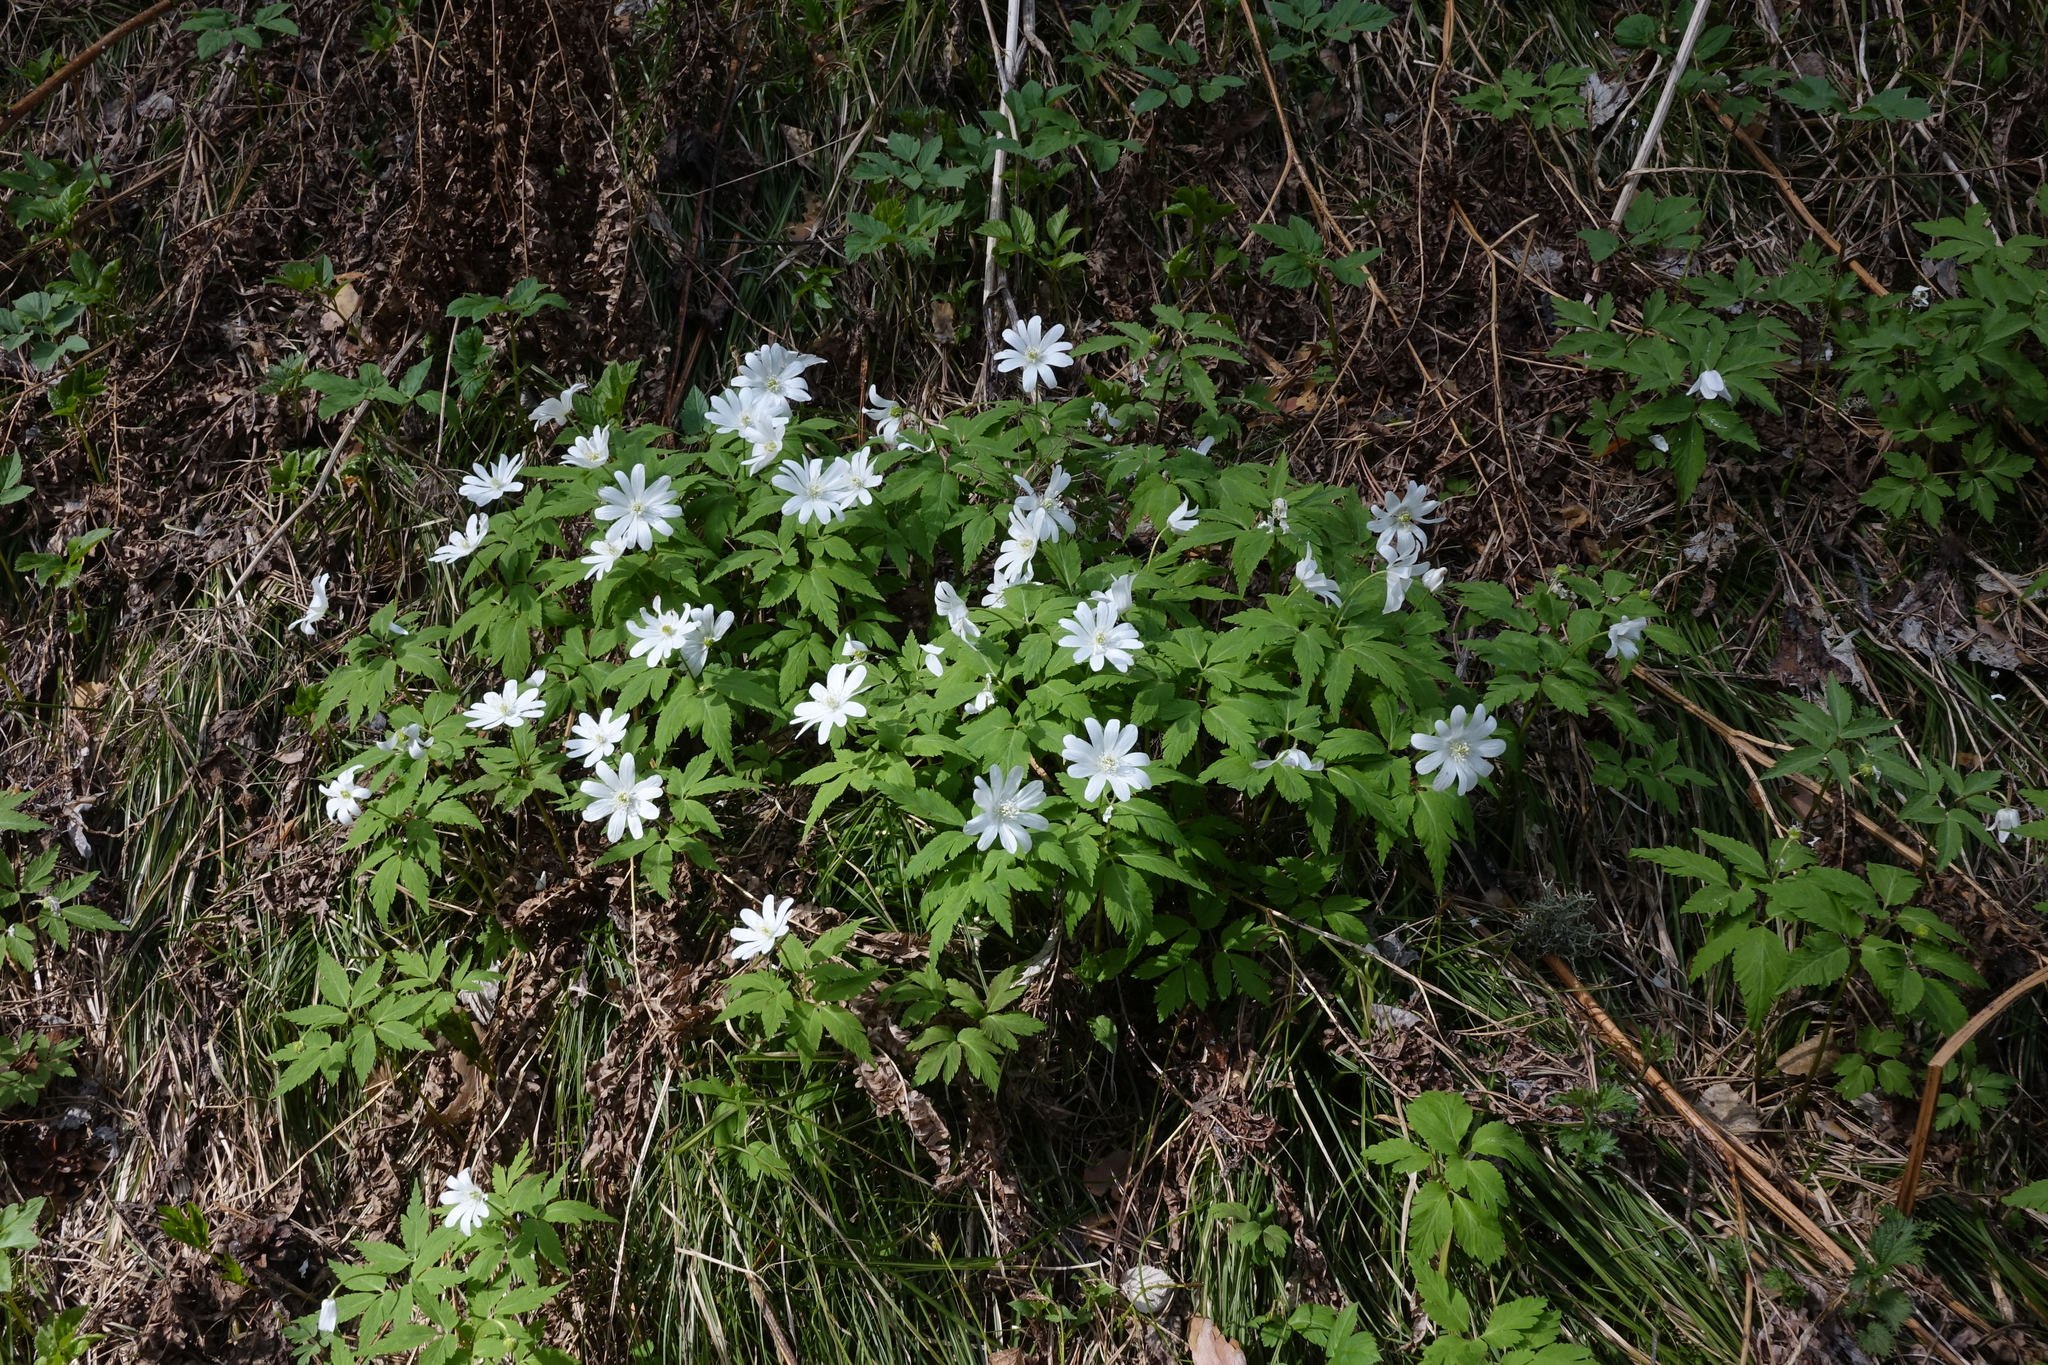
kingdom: Plantae
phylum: Tracheophyta
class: Magnoliopsida
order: Ranunculales
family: Ranunculaceae
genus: Anemone
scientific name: Anemone altaica
